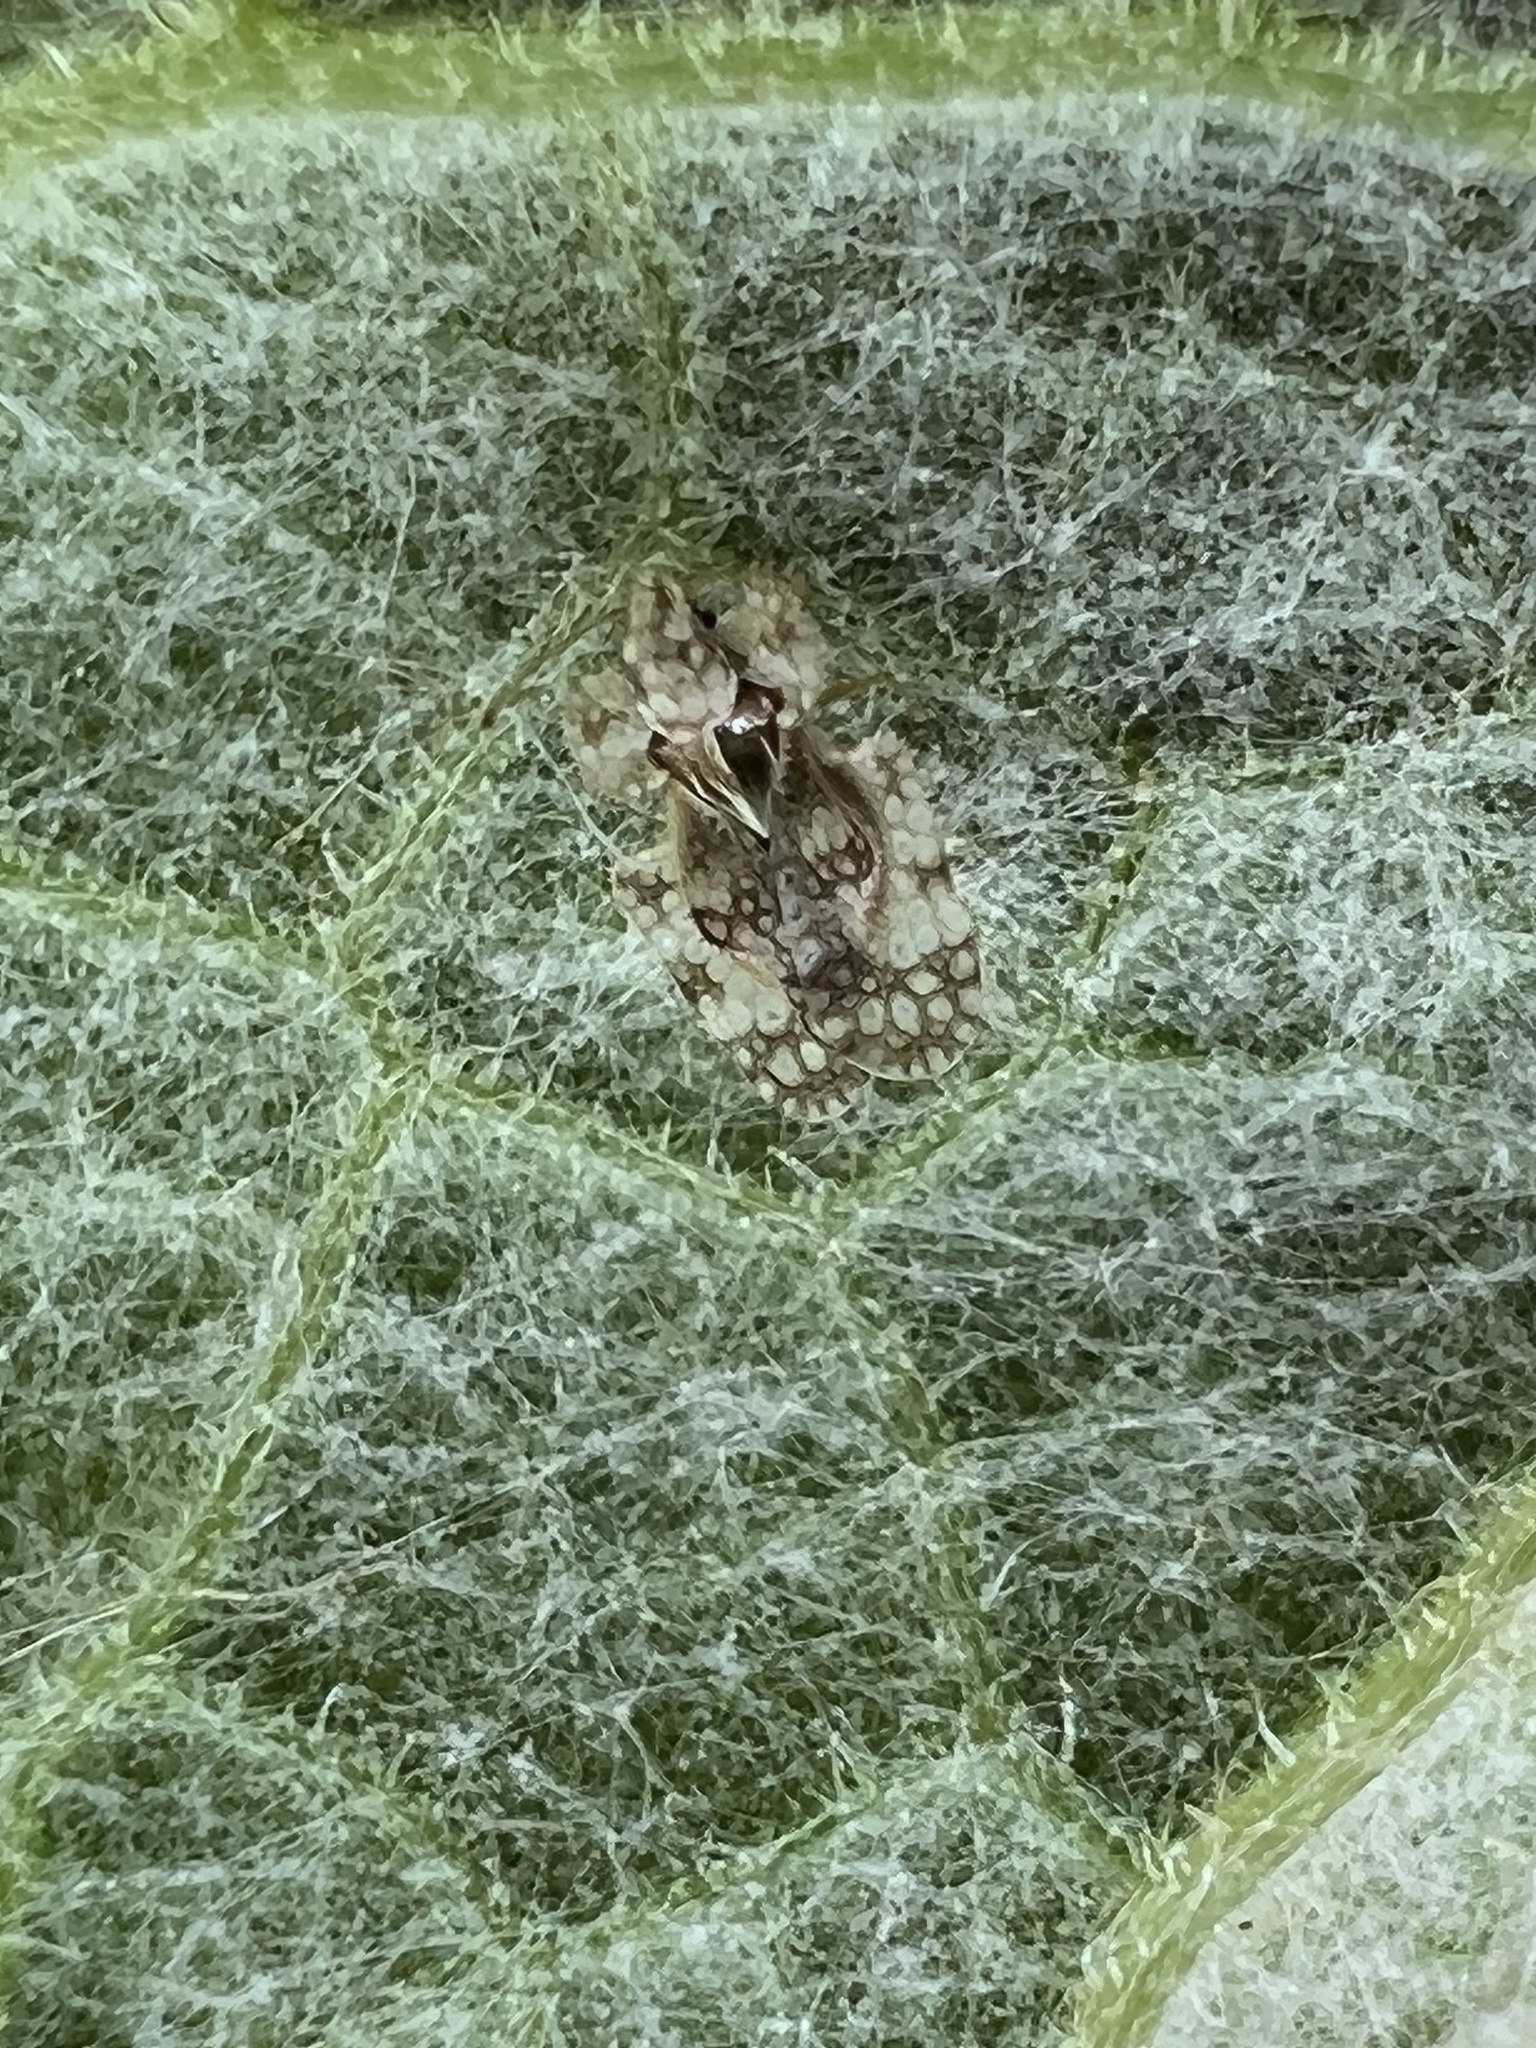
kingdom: Animalia
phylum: Arthropoda
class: Insecta
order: Hemiptera
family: Tingidae
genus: Corythucha
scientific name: Corythucha marmorata
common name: Chrysanthemum lace bug
